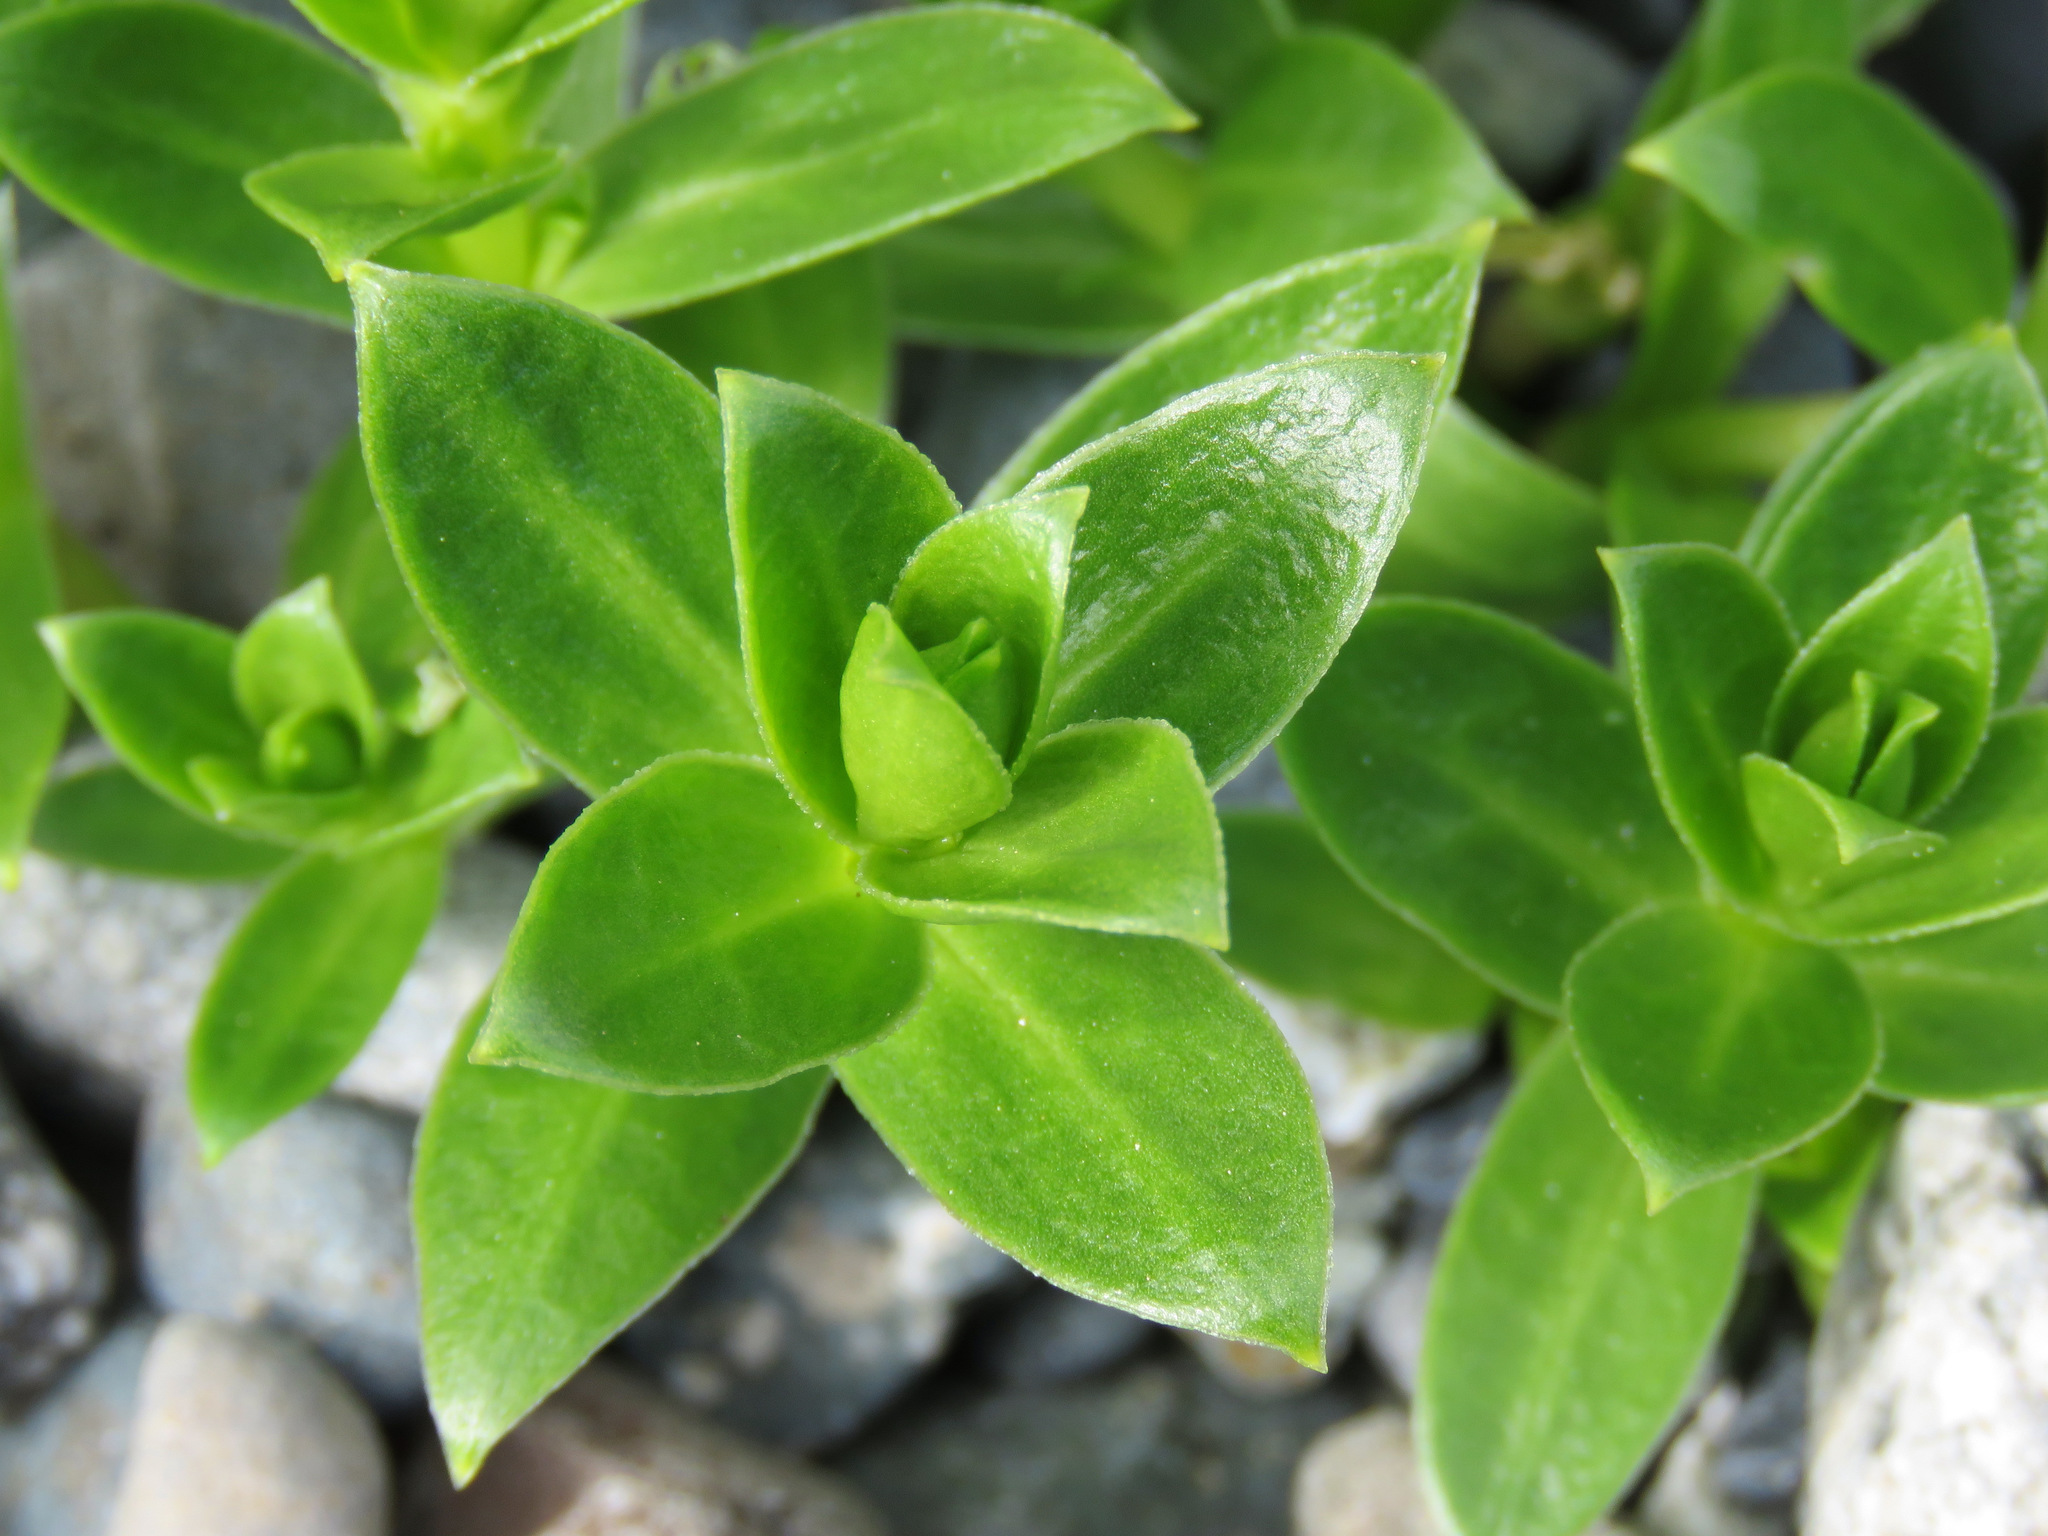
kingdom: Plantae
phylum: Tracheophyta
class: Magnoliopsida
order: Caryophyllales
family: Caryophyllaceae
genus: Honckenya
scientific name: Honckenya peploides
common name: Sea sandwort
